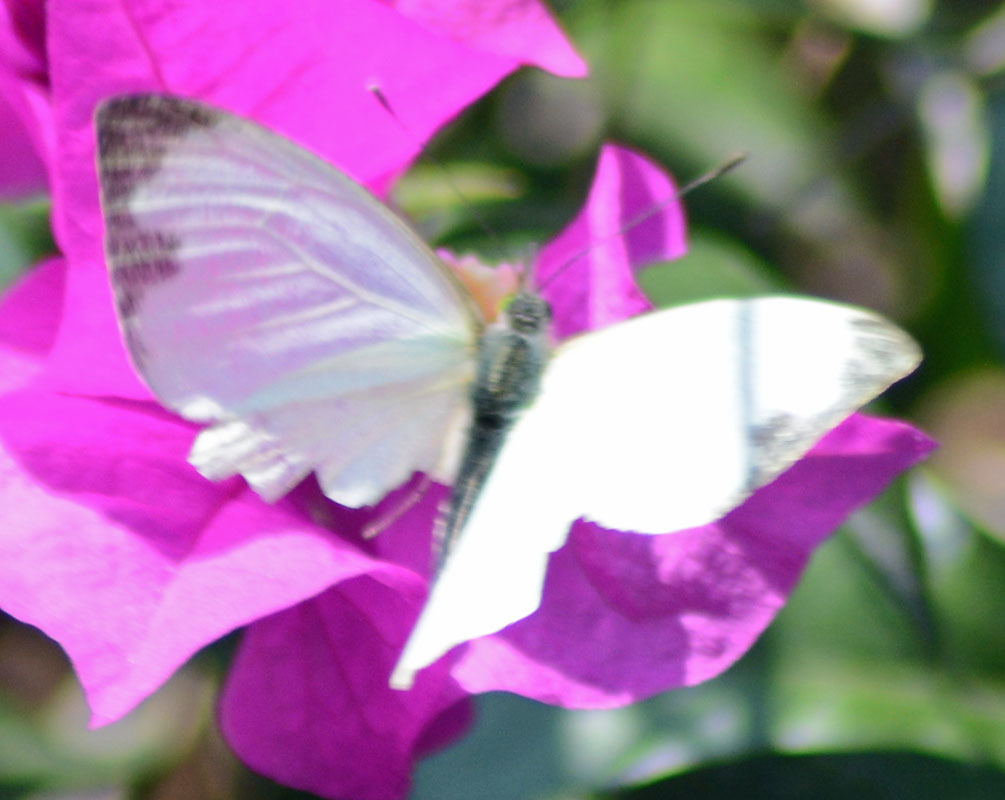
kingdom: Animalia
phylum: Arthropoda
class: Insecta
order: Lepidoptera
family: Pieridae
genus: Leptophobia
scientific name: Leptophobia aripa
